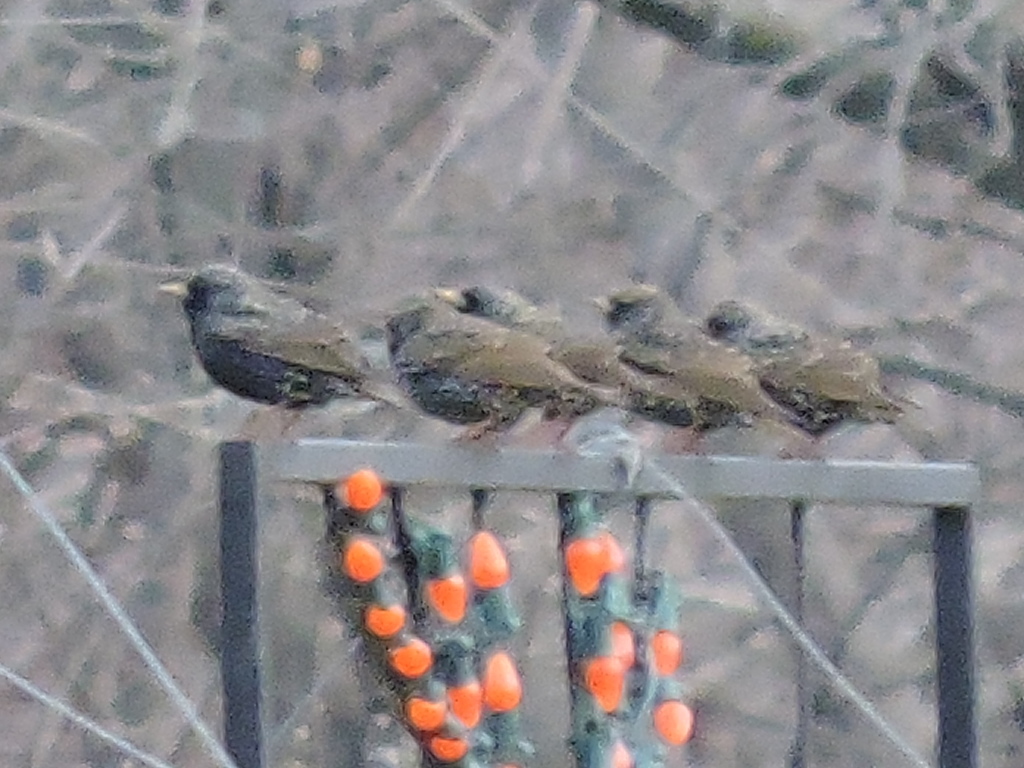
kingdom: Animalia
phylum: Chordata
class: Aves
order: Passeriformes
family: Sturnidae
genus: Sturnus
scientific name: Sturnus vulgaris
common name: Common starling
